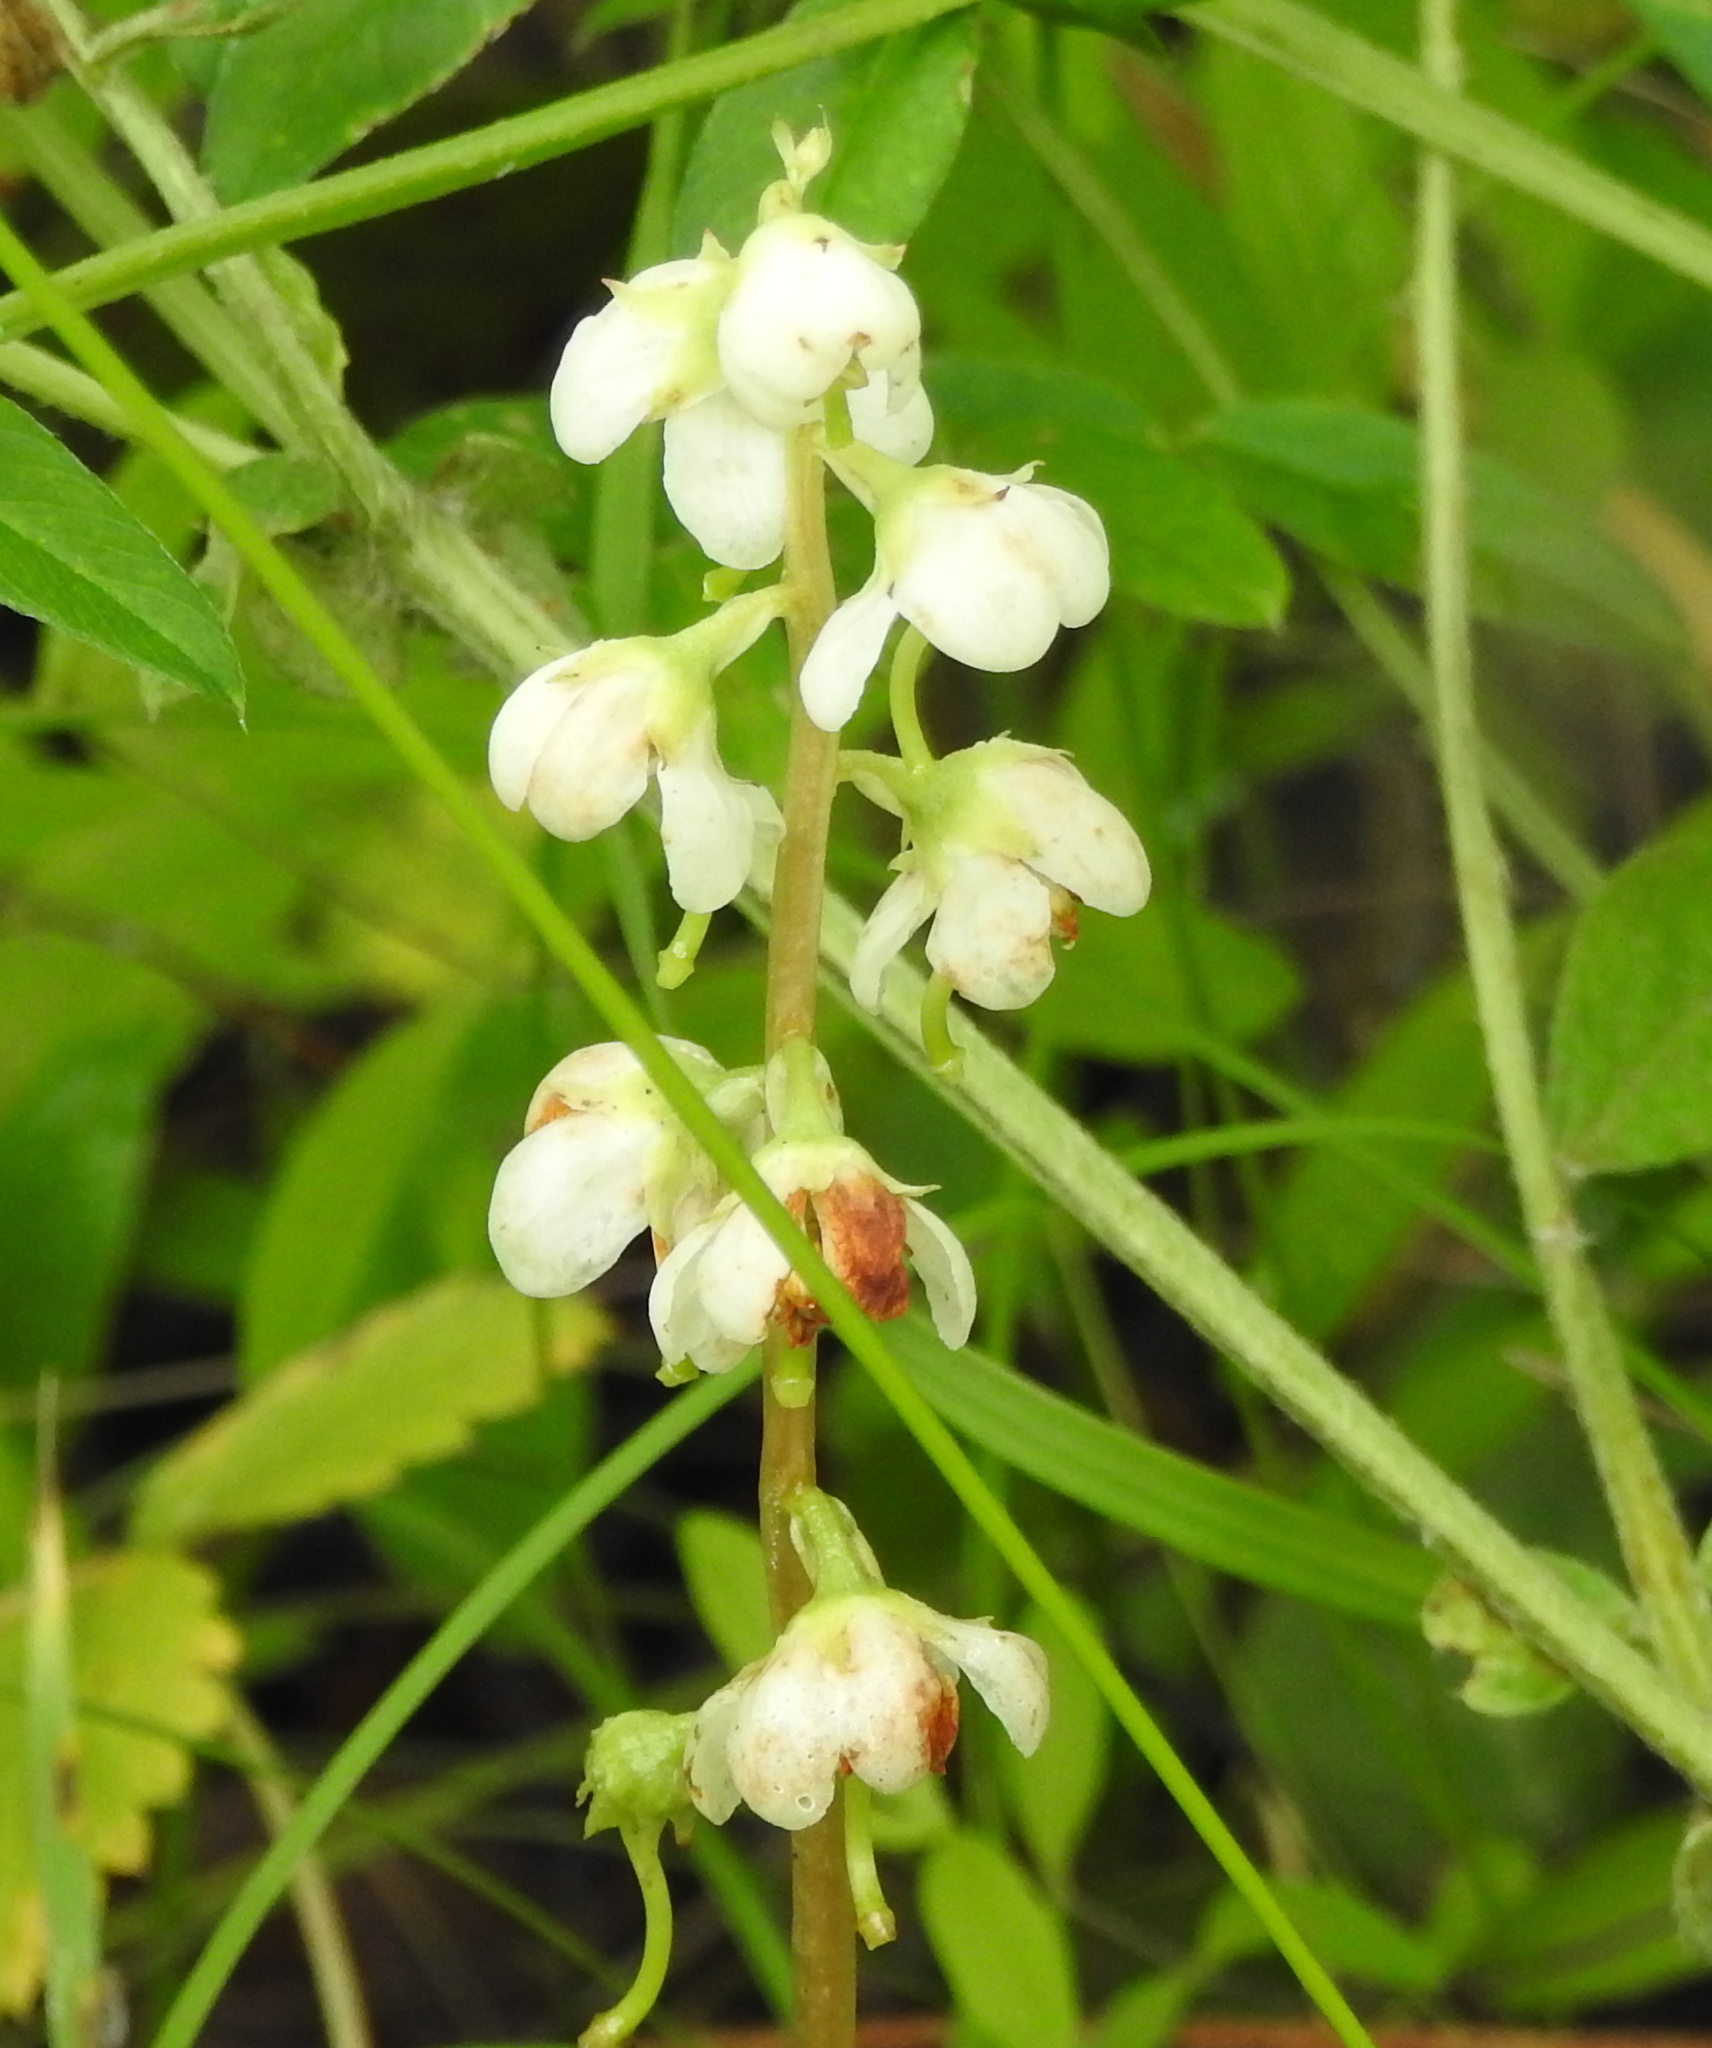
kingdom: Plantae
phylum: Tracheophyta
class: Magnoliopsida
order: Ericales
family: Ericaceae
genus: Pyrola
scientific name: Pyrola rotundifolia
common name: Round-leaved wintergreen
